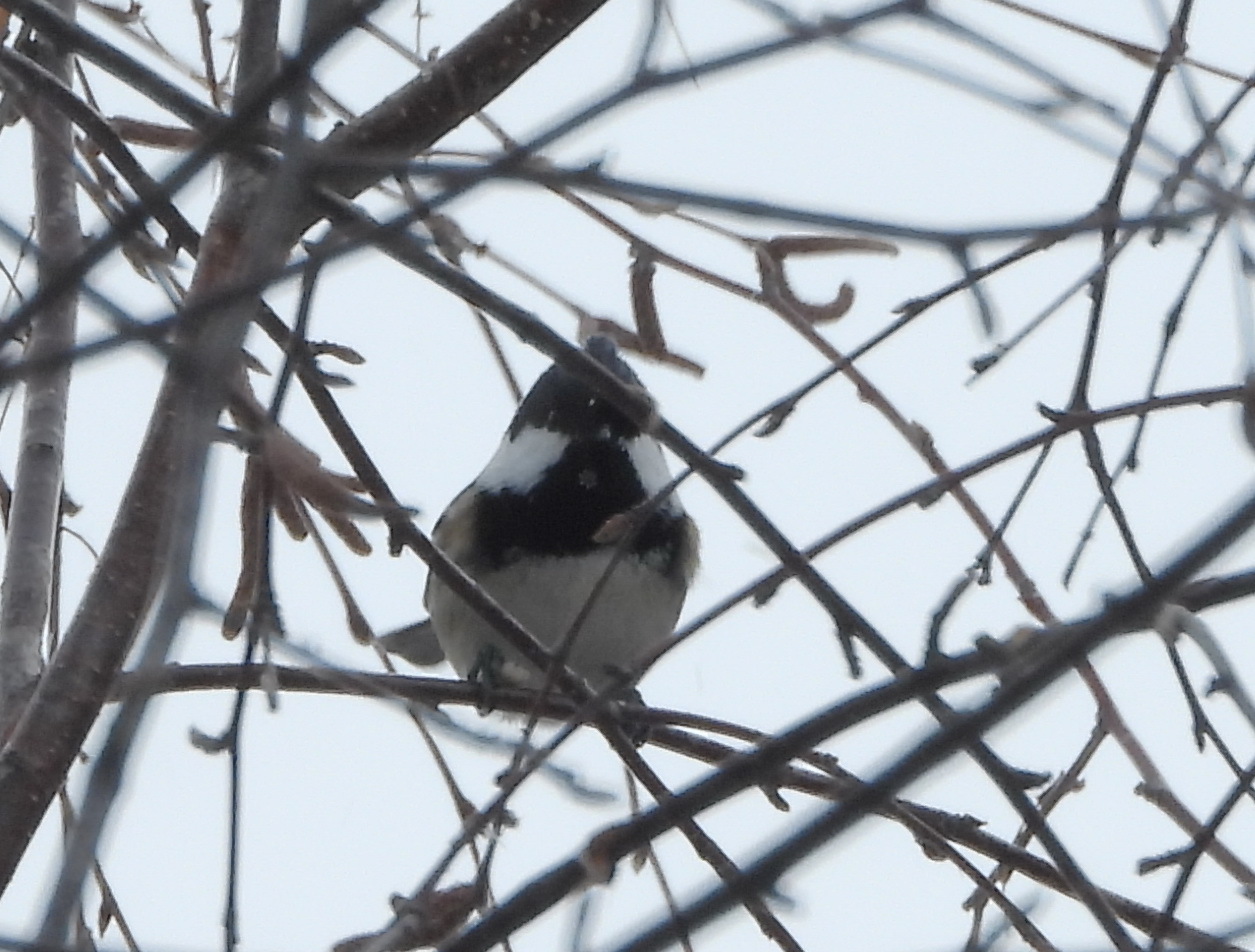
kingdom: Animalia
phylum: Chordata
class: Aves
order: Passeriformes
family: Paridae
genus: Periparus
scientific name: Periparus ater
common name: Coal tit
